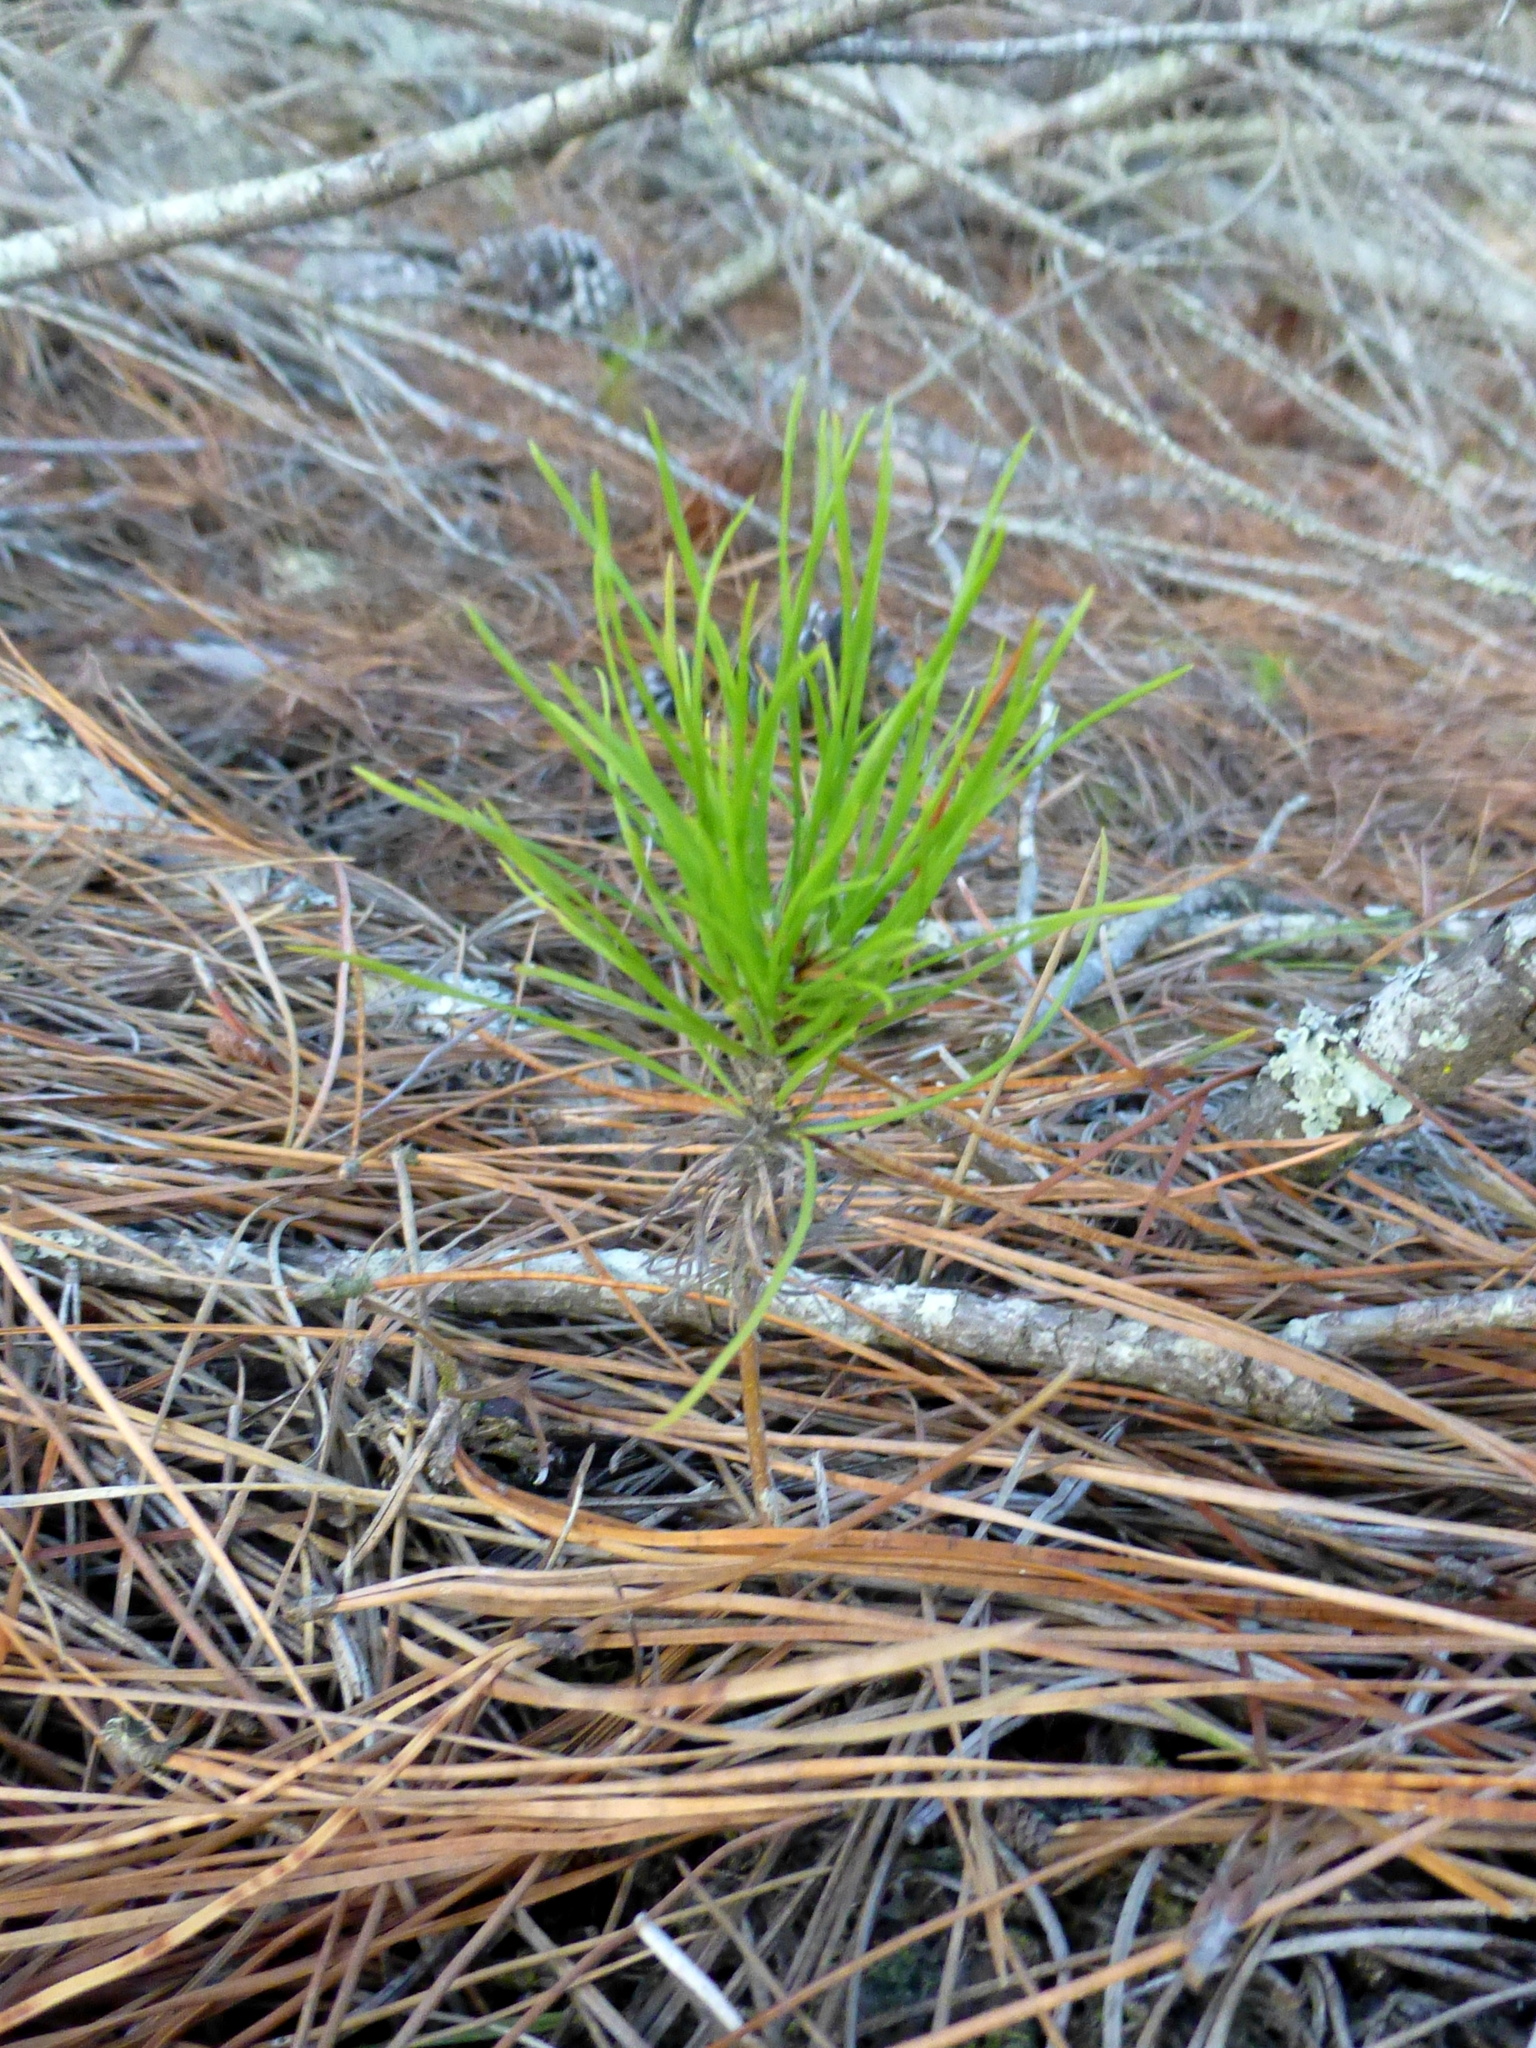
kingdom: Plantae
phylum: Tracheophyta
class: Pinopsida
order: Pinales
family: Pinaceae
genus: Pinus
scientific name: Pinus radiata
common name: Monterey pine
